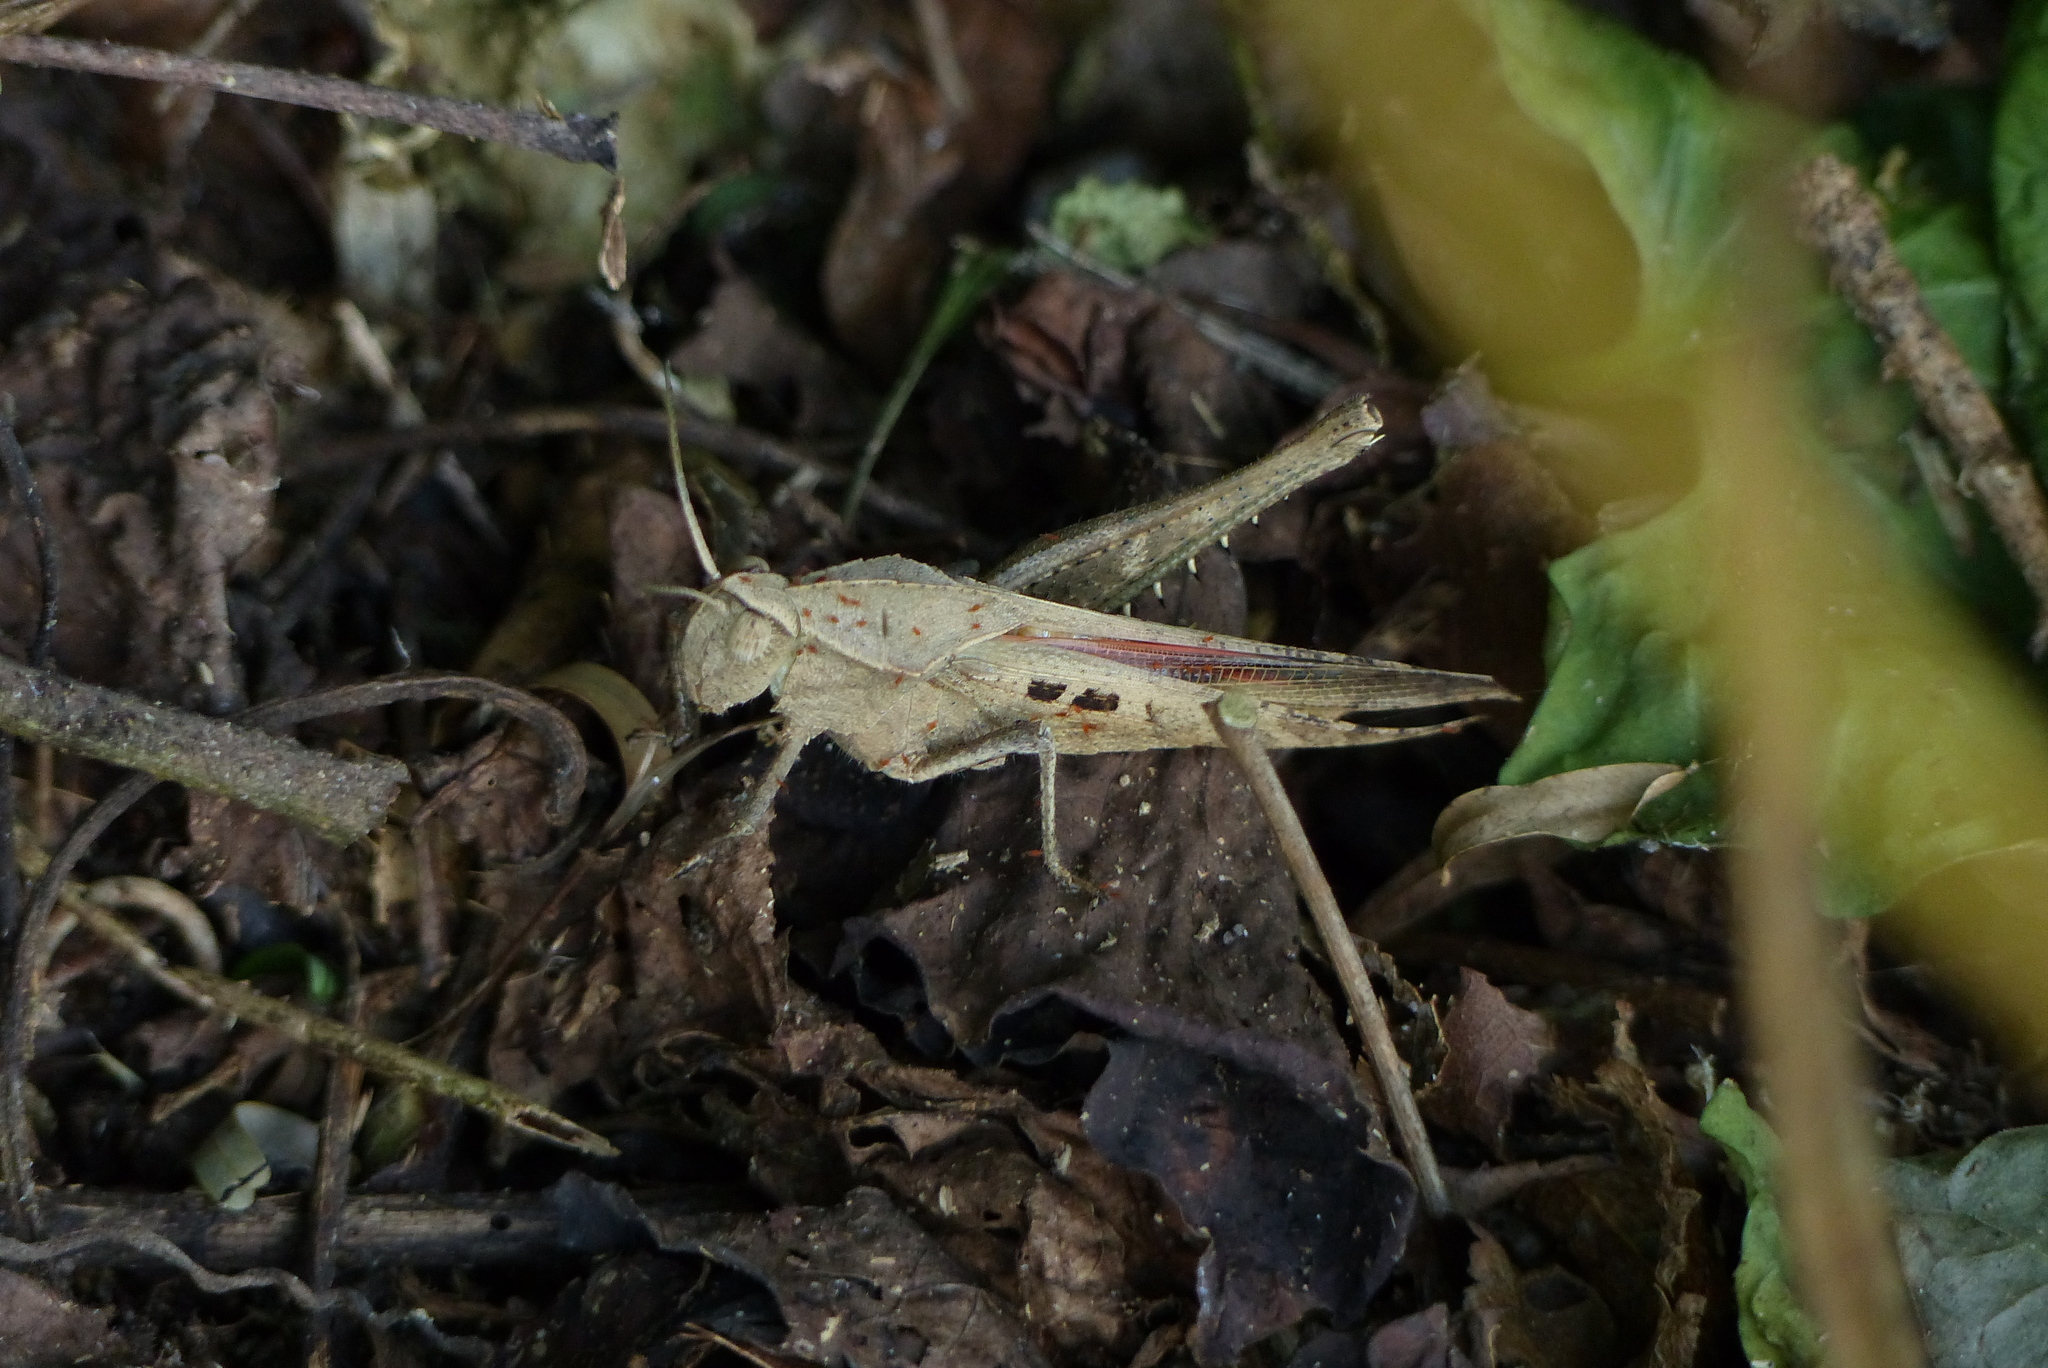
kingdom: Animalia
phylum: Arthropoda
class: Insecta
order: Orthoptera
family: Romaleidae
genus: Xyleus
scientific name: Xyleus discoideus
